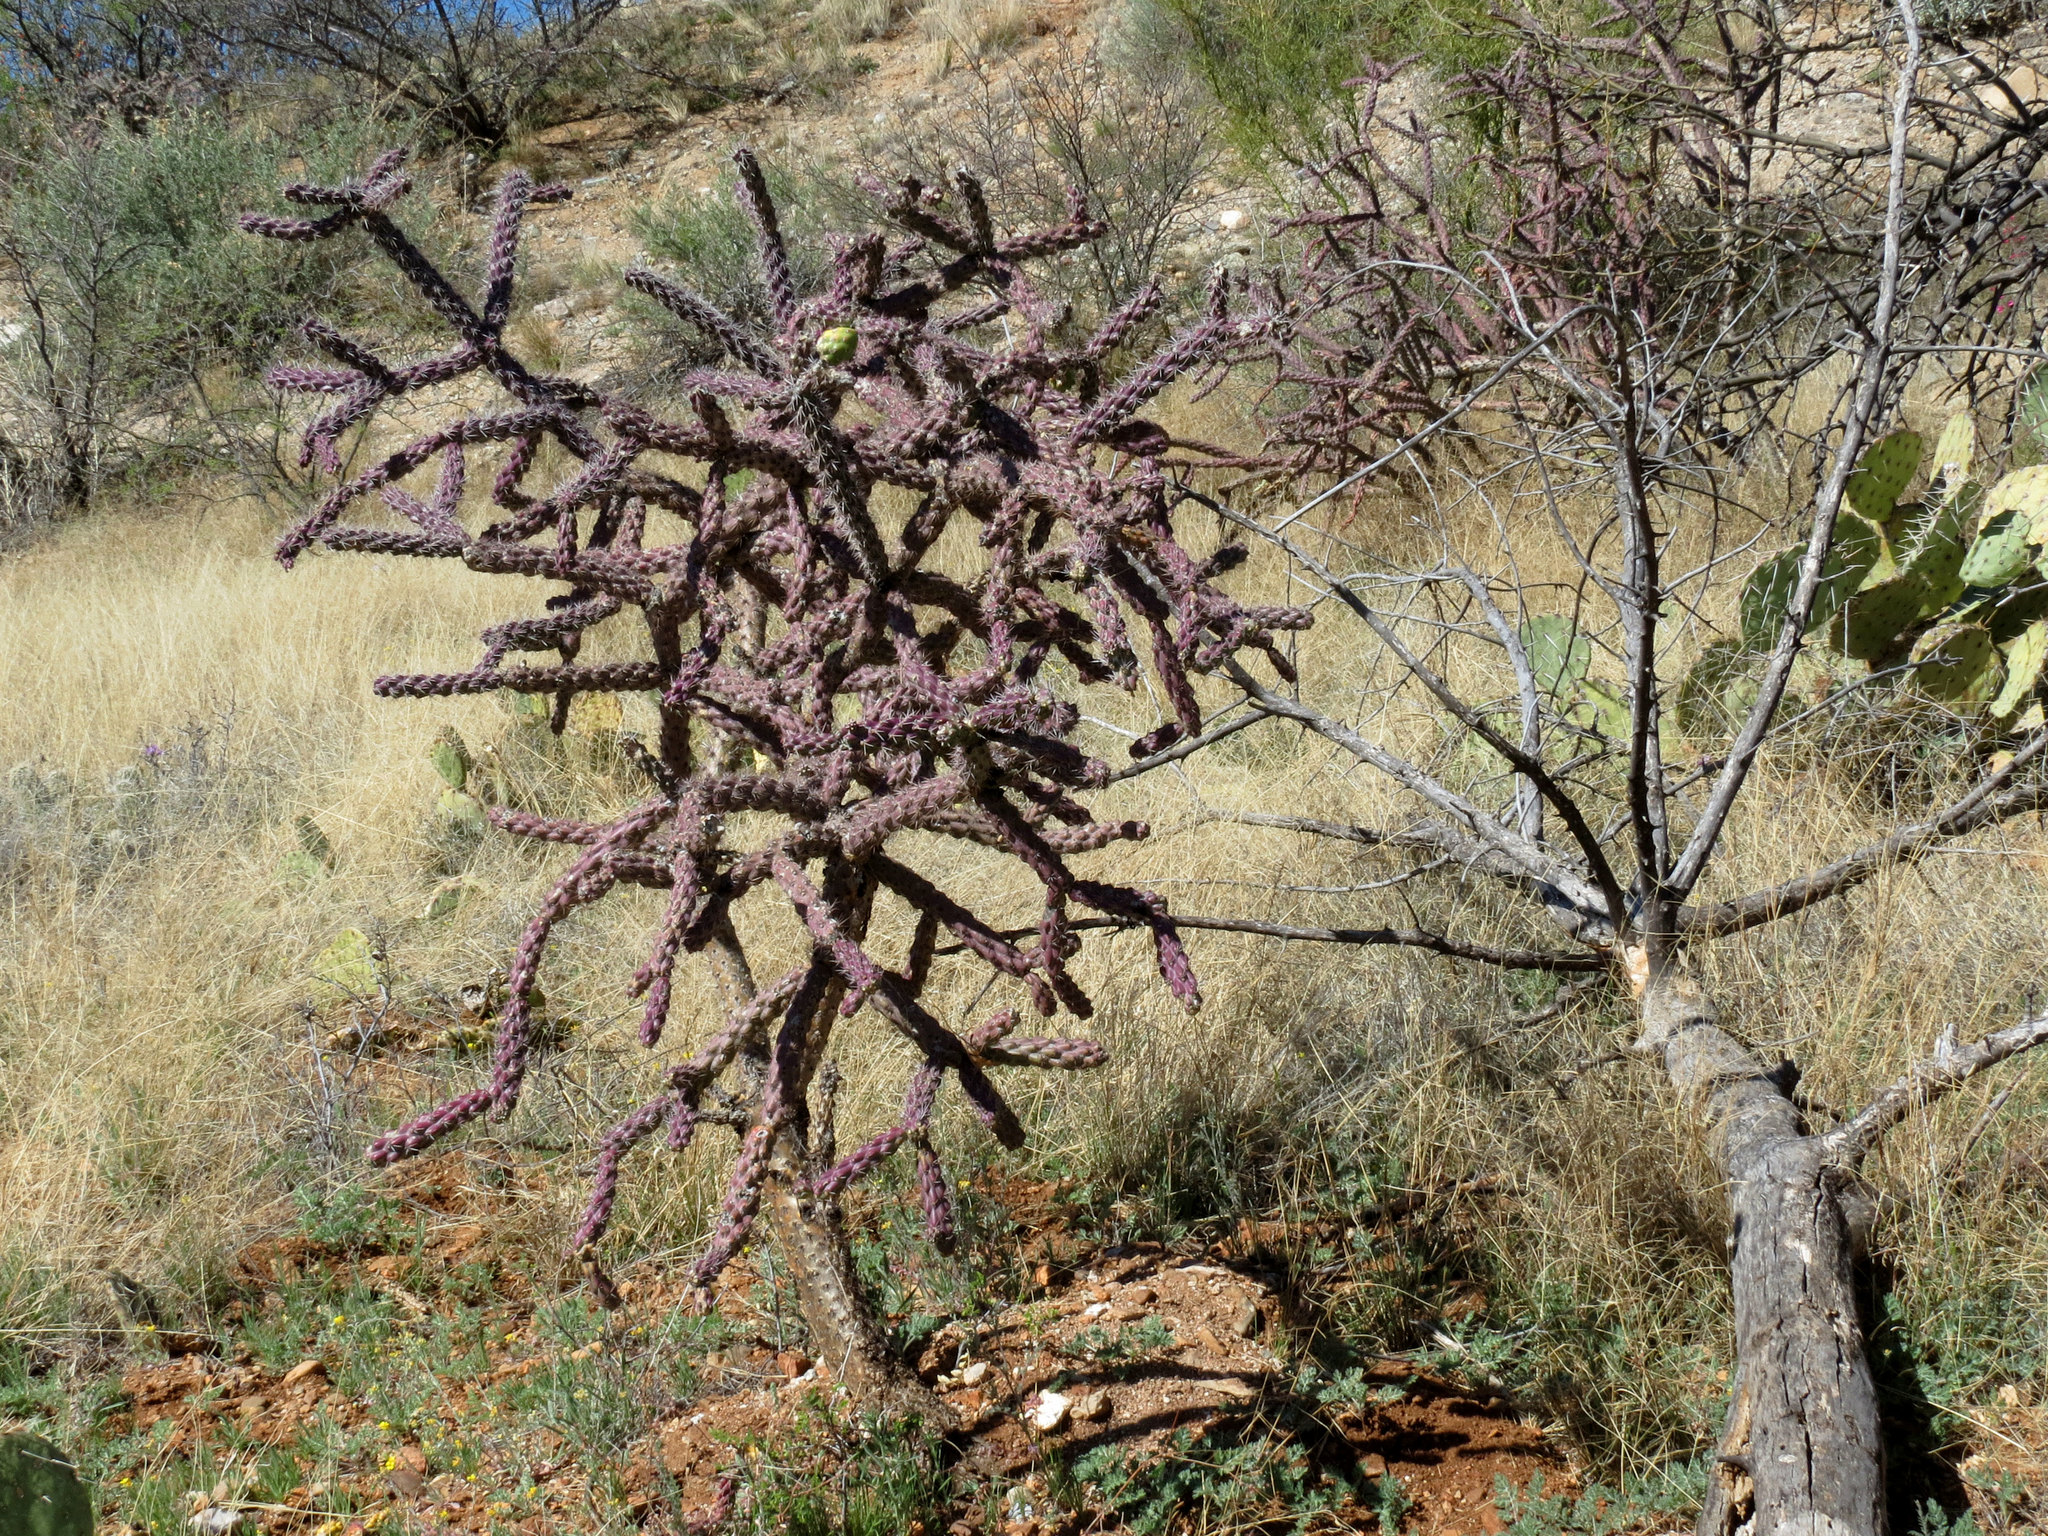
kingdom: Plantae
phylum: Tracheophyta
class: Magnoliopsida
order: Caryophyllales
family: Cactaceae
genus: Cylindropuntia
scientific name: Cylindropuntia thurberi
